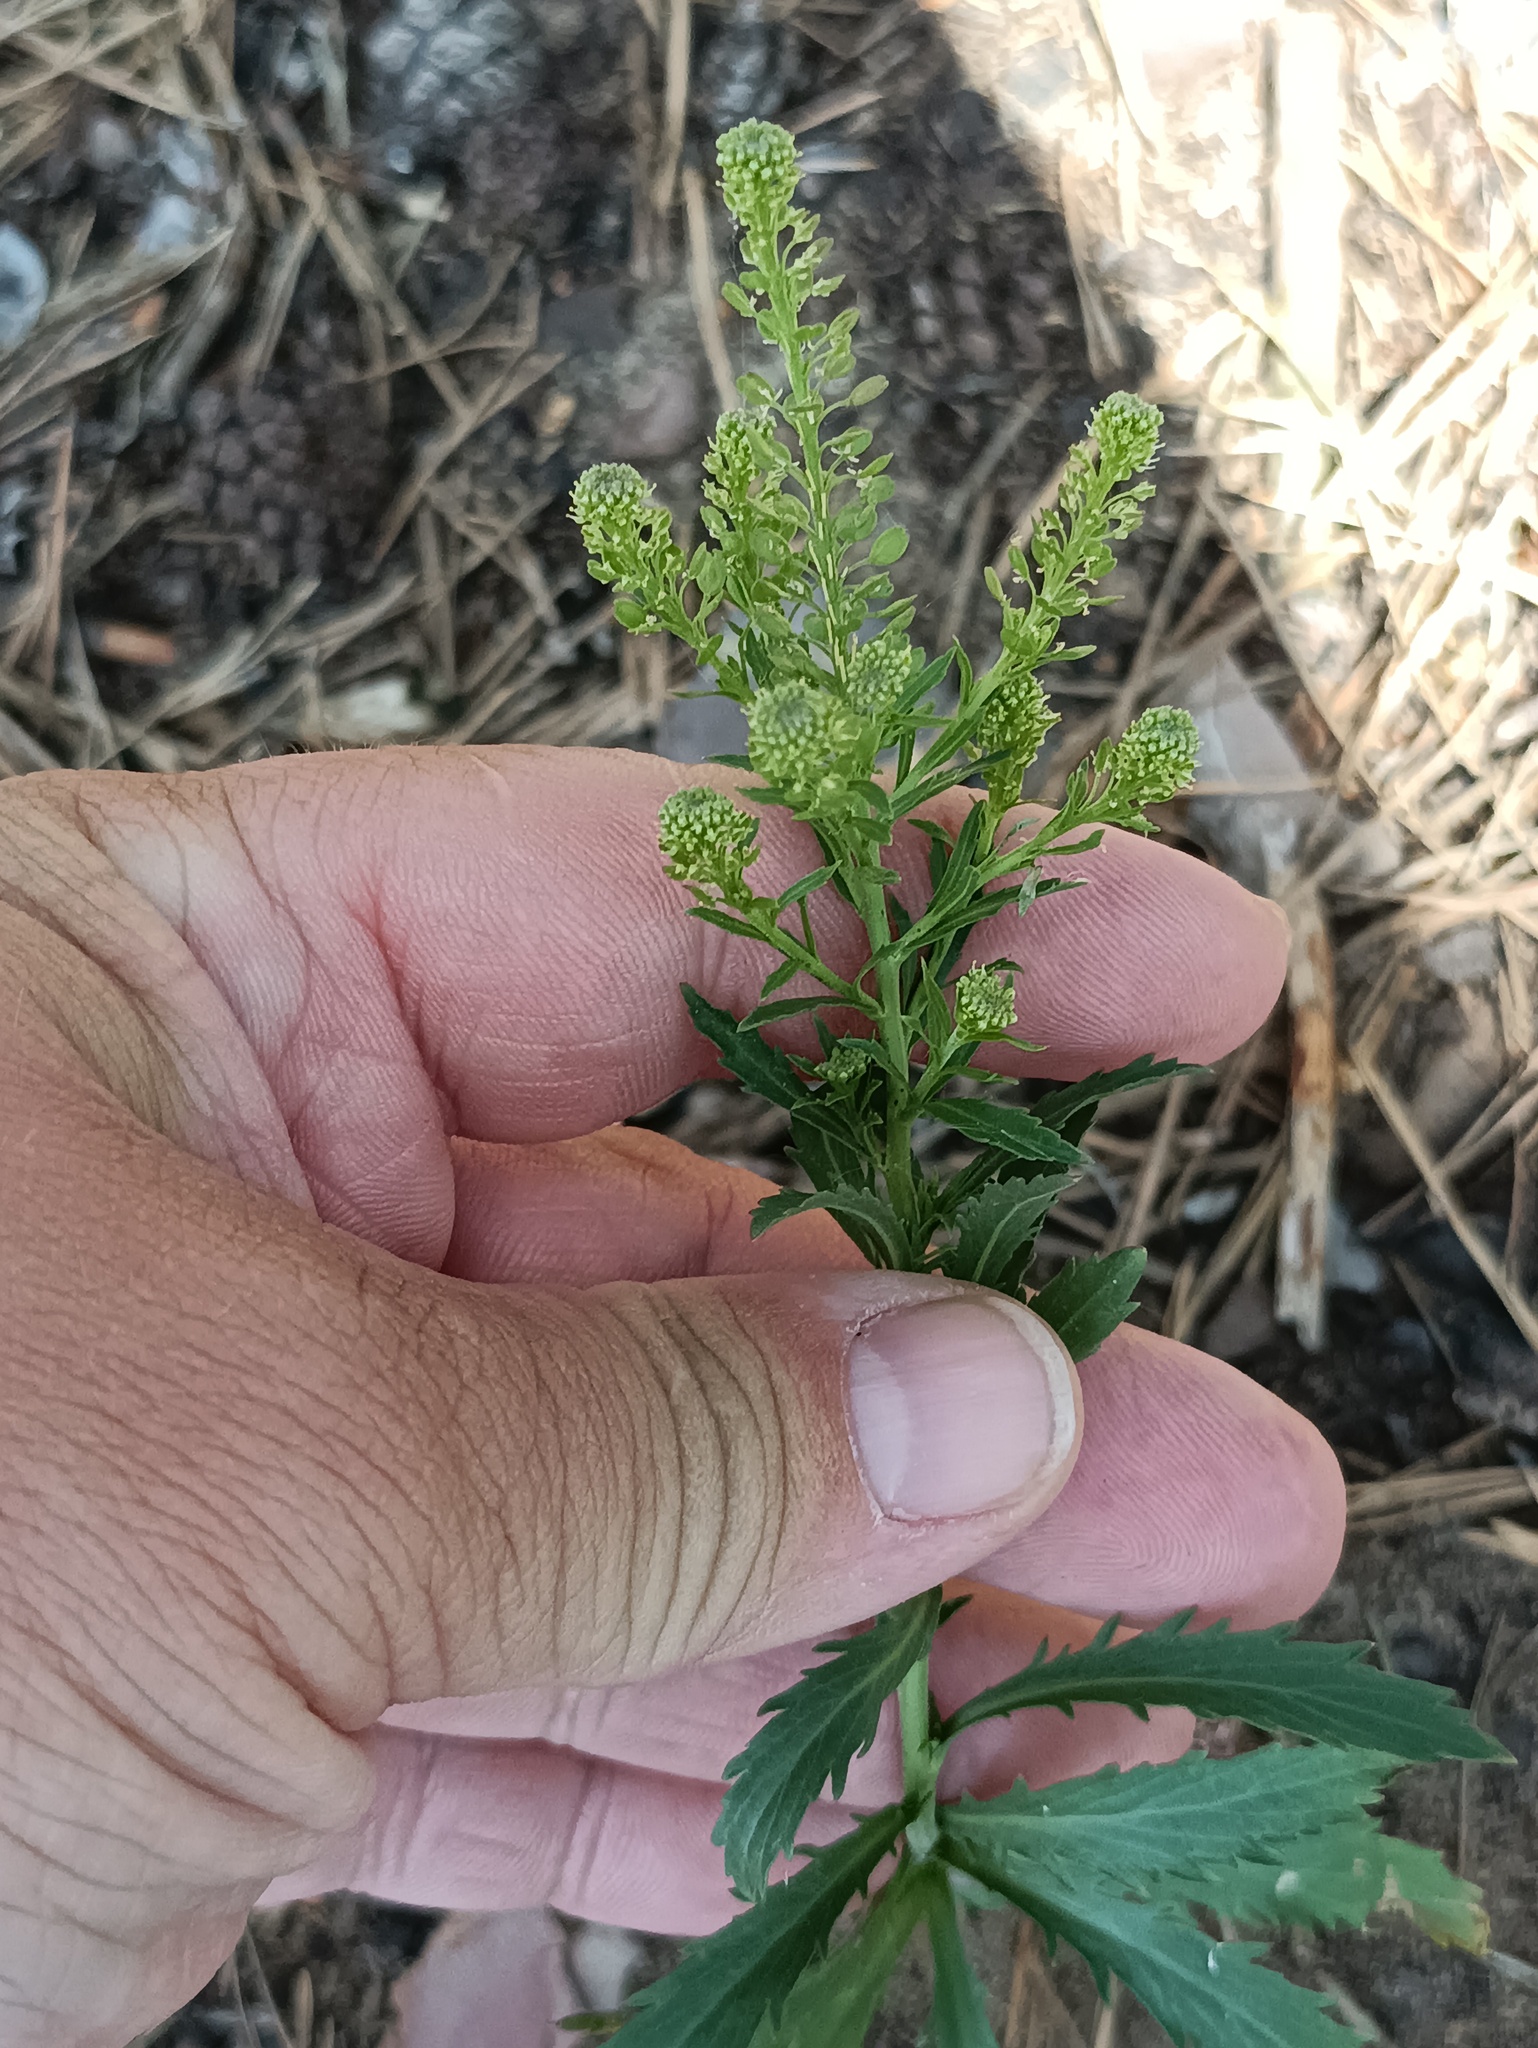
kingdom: Plantae
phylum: Tracheophyta
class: Magnoliopsida
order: Brassicales
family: Brassicaceae
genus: Lepidium
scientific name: Lepidium densiflorum
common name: Miner's pepperwort
